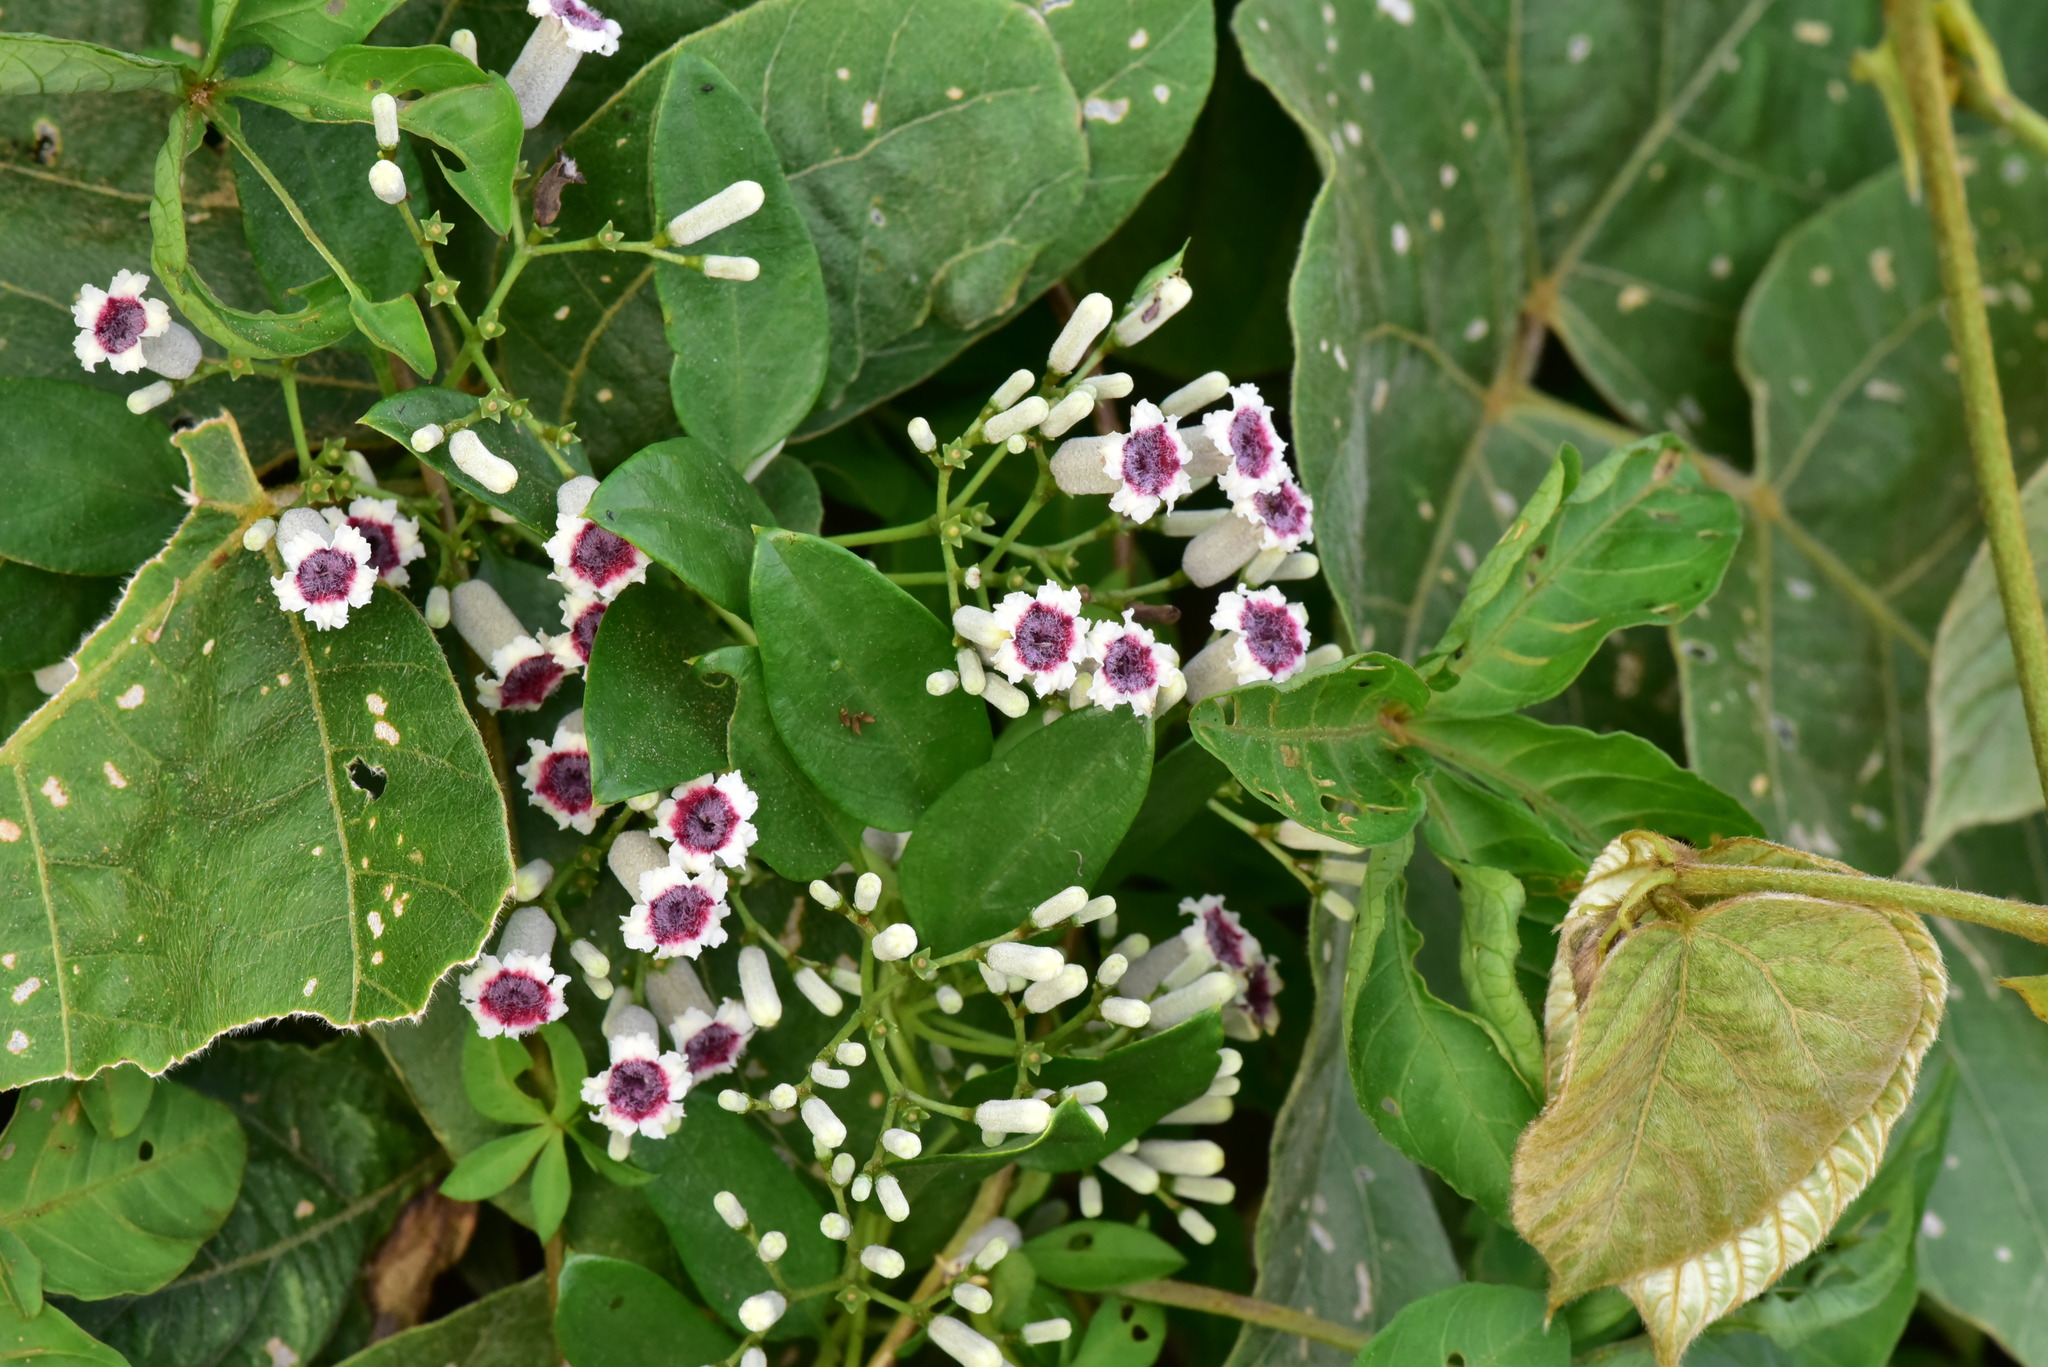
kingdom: Plantae
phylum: Tracheophyta
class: Magnoliopsida
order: Gentianales
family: Rubiaceae
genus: Paederia
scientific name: Paederia foetida
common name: Stinkvine
